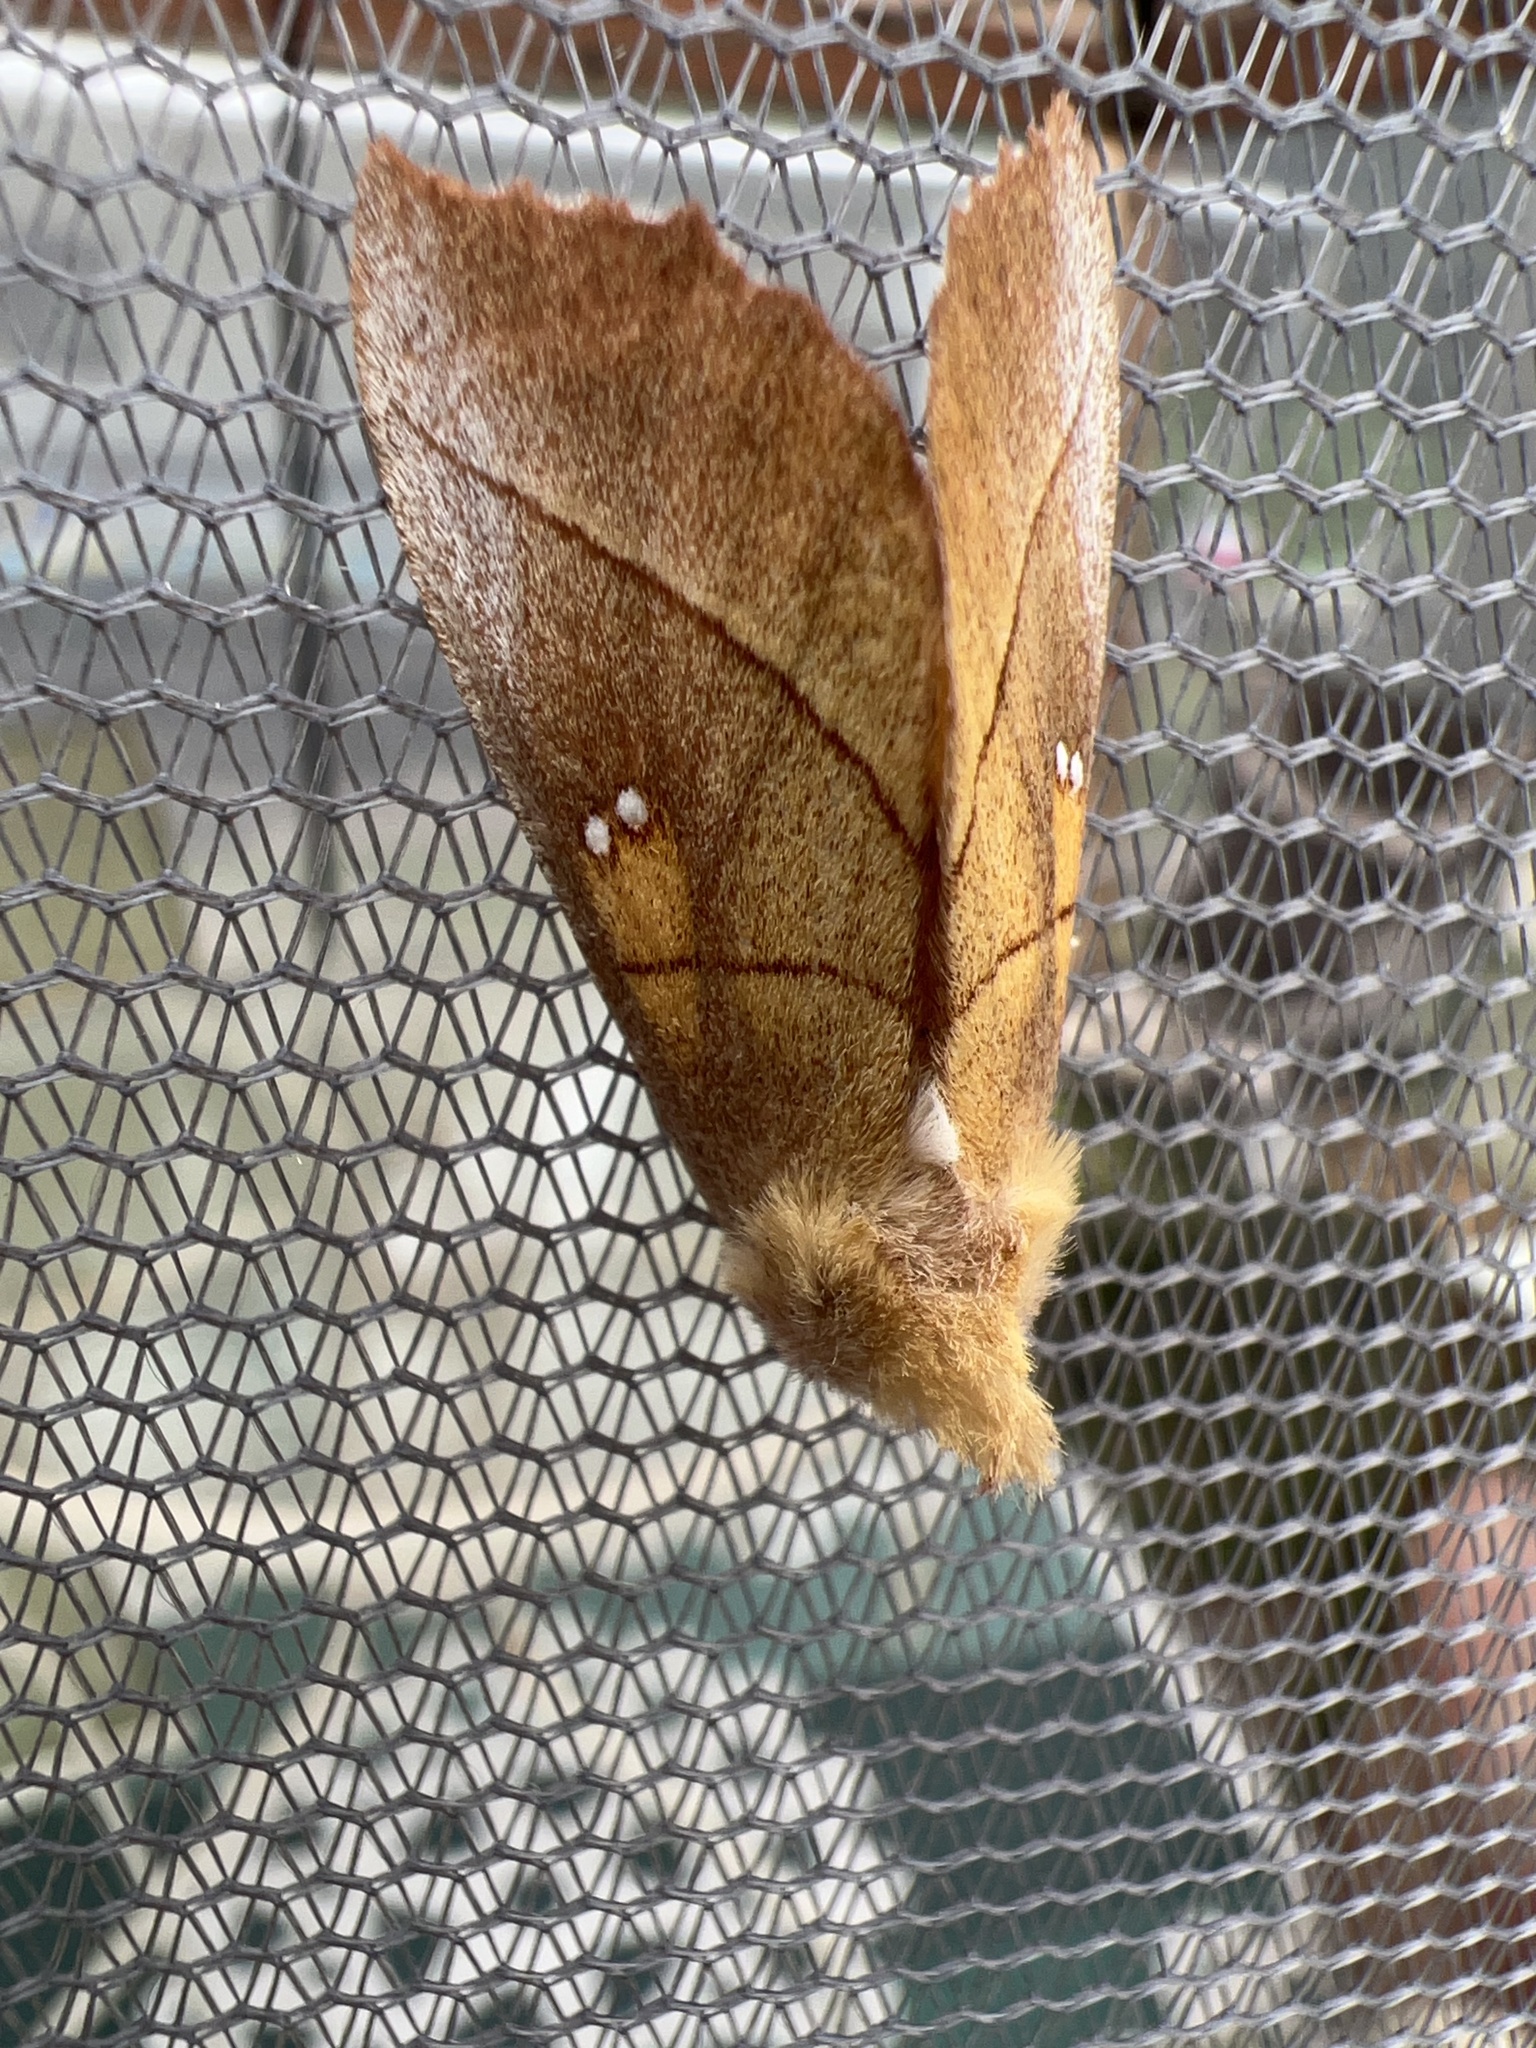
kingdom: Animalia
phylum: Arthropoda
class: Insecta
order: Lepidoptera
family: Notodontidae
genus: Nadata
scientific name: Nadata gibbosa
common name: White-dotted prominent
